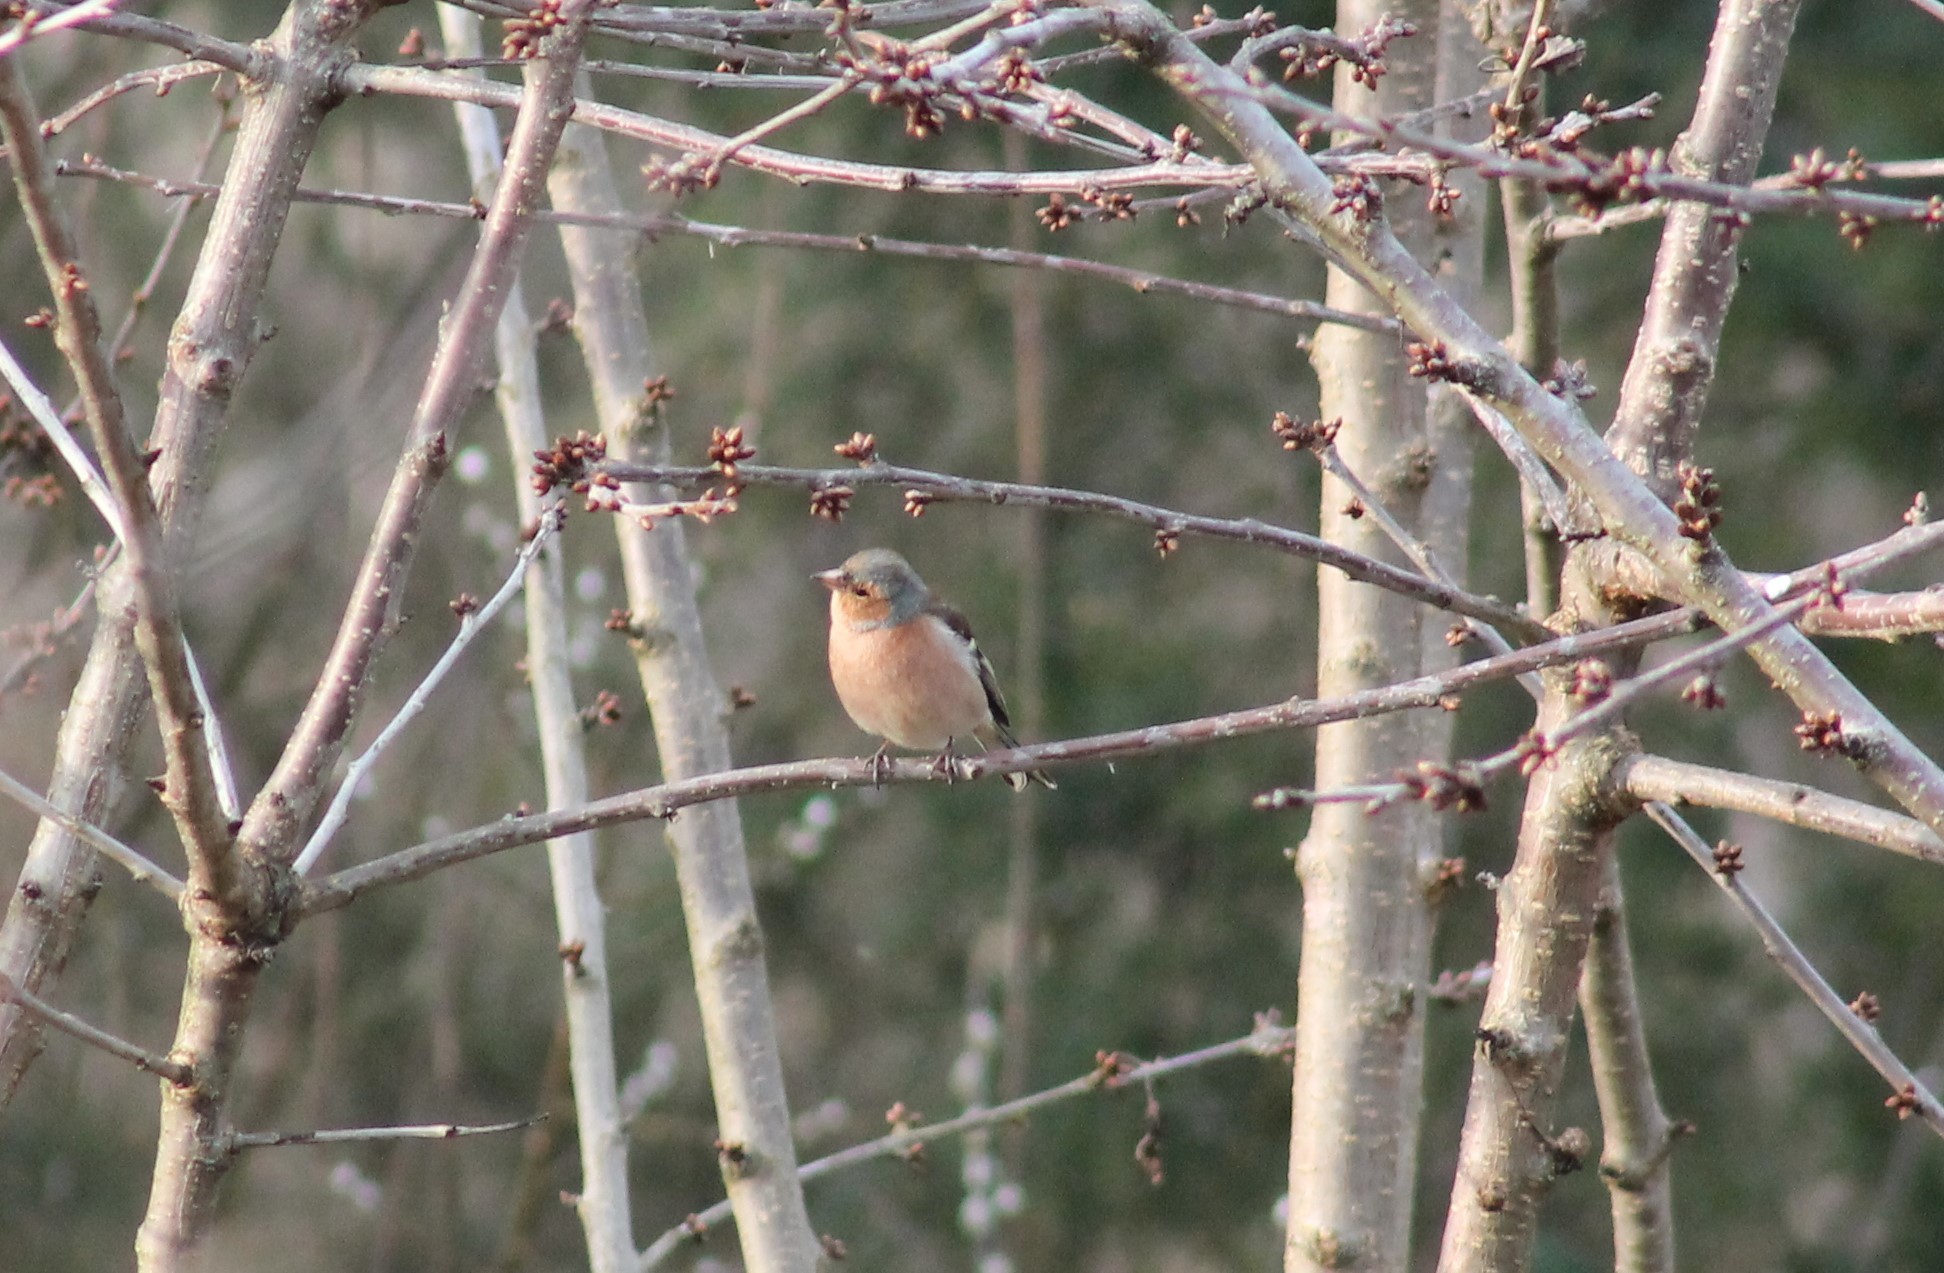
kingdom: Animalia
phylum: Chordata
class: Aves
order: Passeriformes
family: Fringillidae
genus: Fringilla
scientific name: Fringilla coelebs
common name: Common chaffinch
